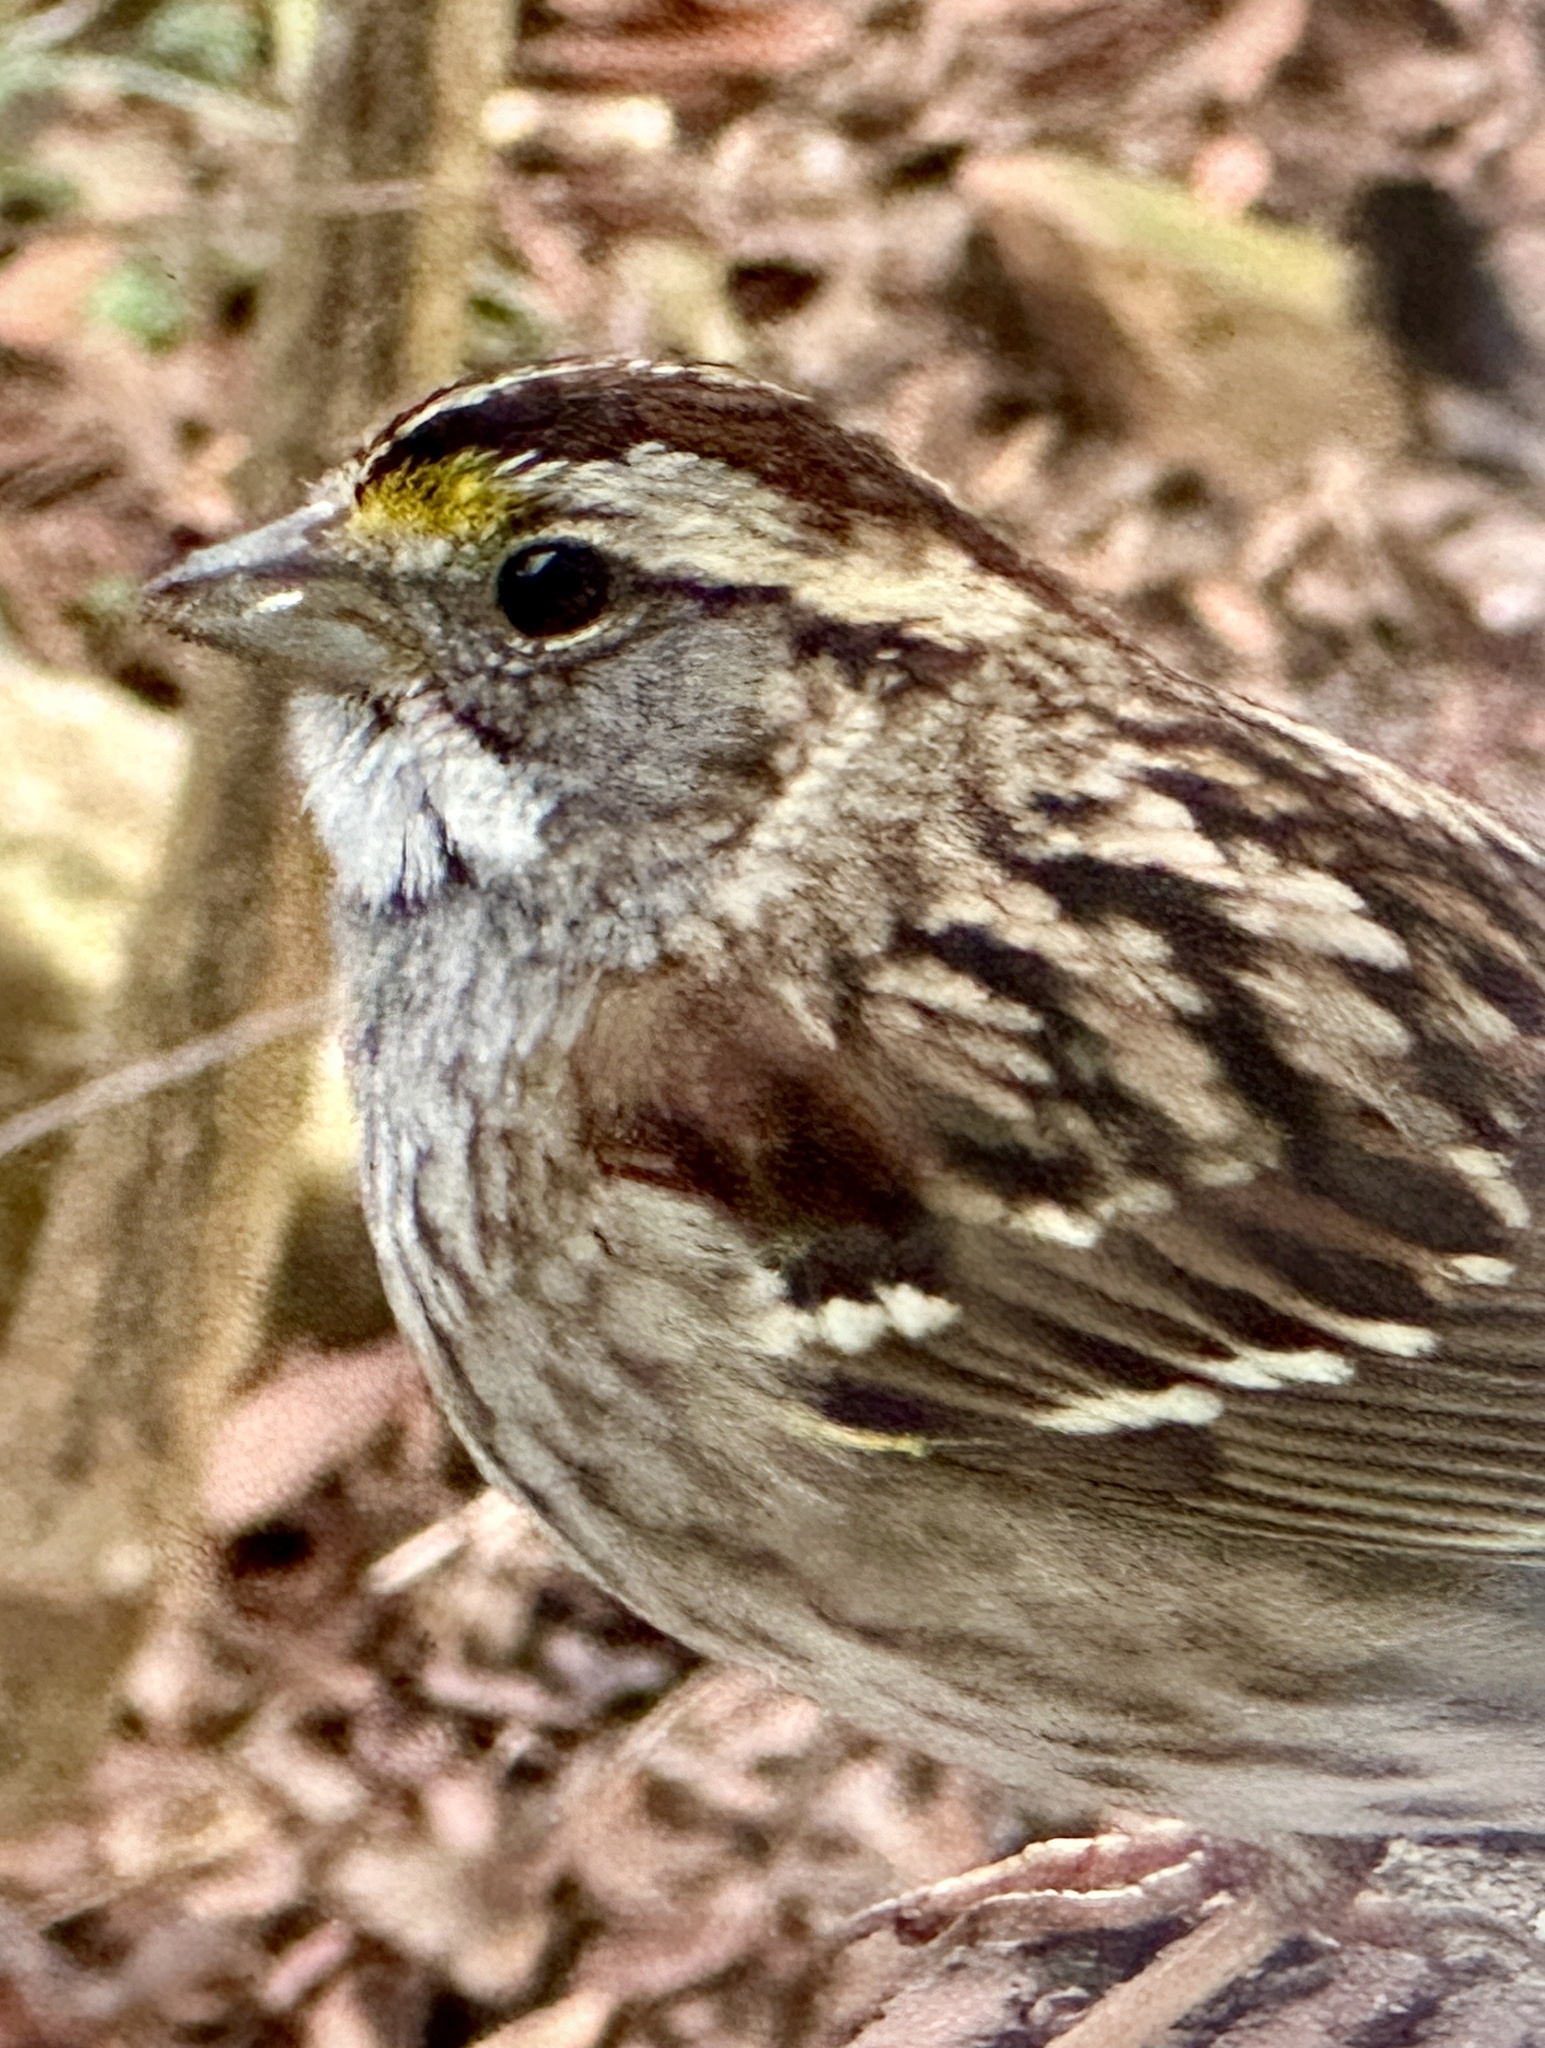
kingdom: Animalia
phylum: Chordata
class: Aves
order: Passeriformes
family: Passerellidae
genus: Zonotrichia
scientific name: Zonotrichia albicollis
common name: White-throated sparrow
